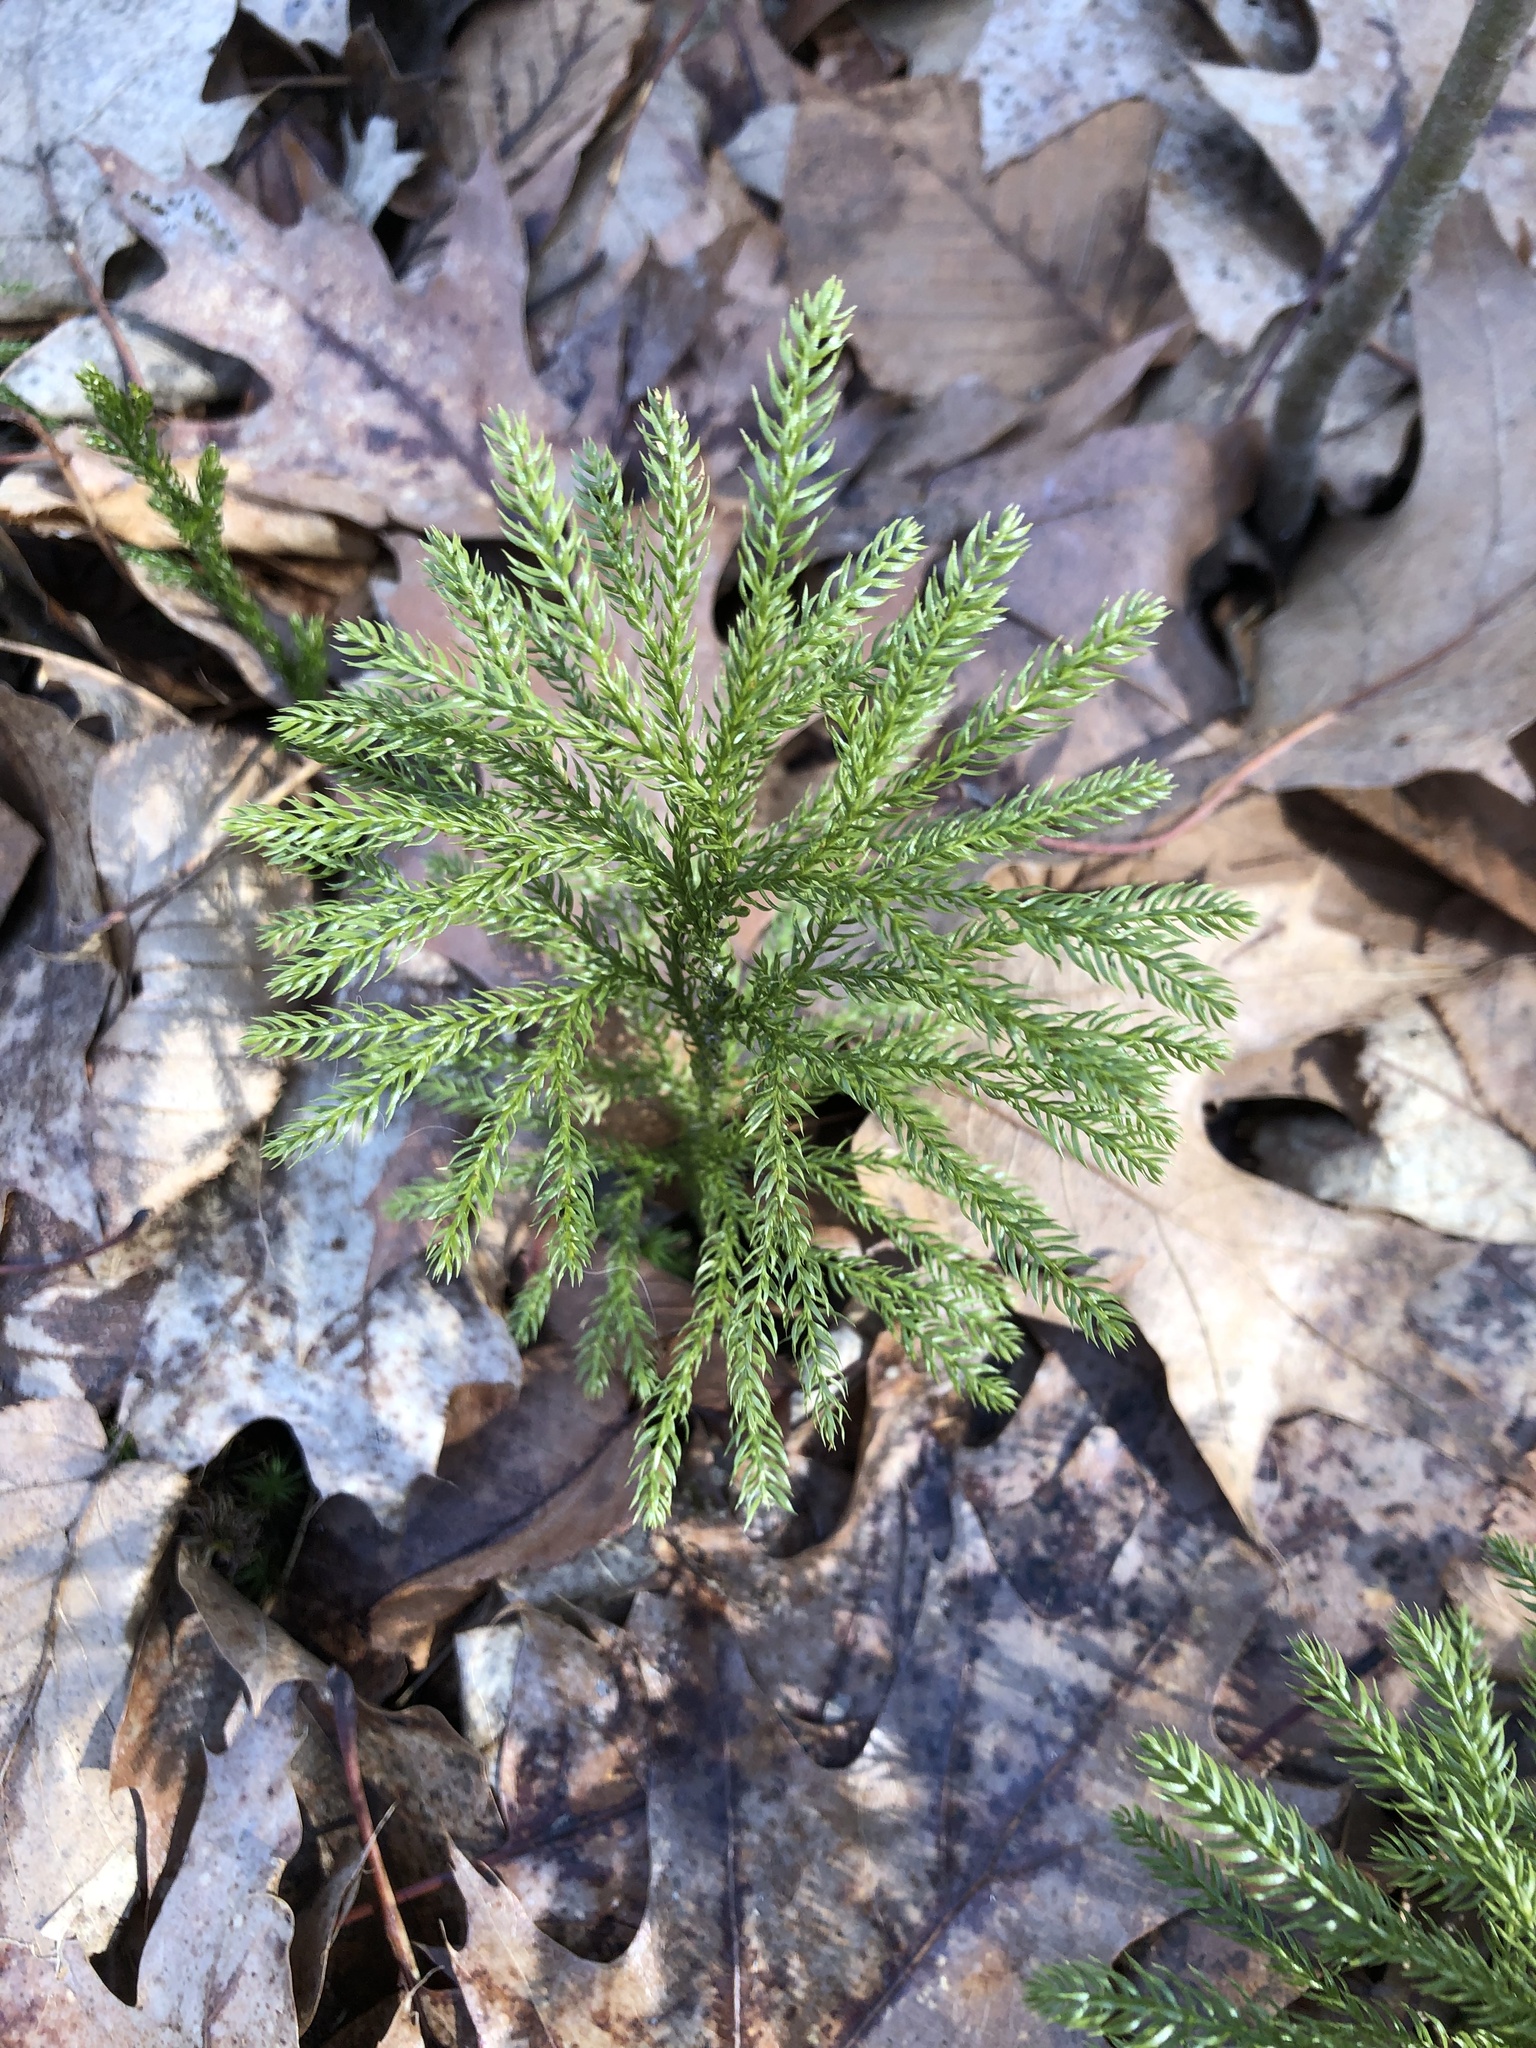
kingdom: Plantae
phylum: Tracheophyta
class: Lycopodiopsida
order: Lycopodiales
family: Lycopodiaceae
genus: Dendrolycopodium
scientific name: Dendrolycopodium obscurum
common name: Common ground-pine
